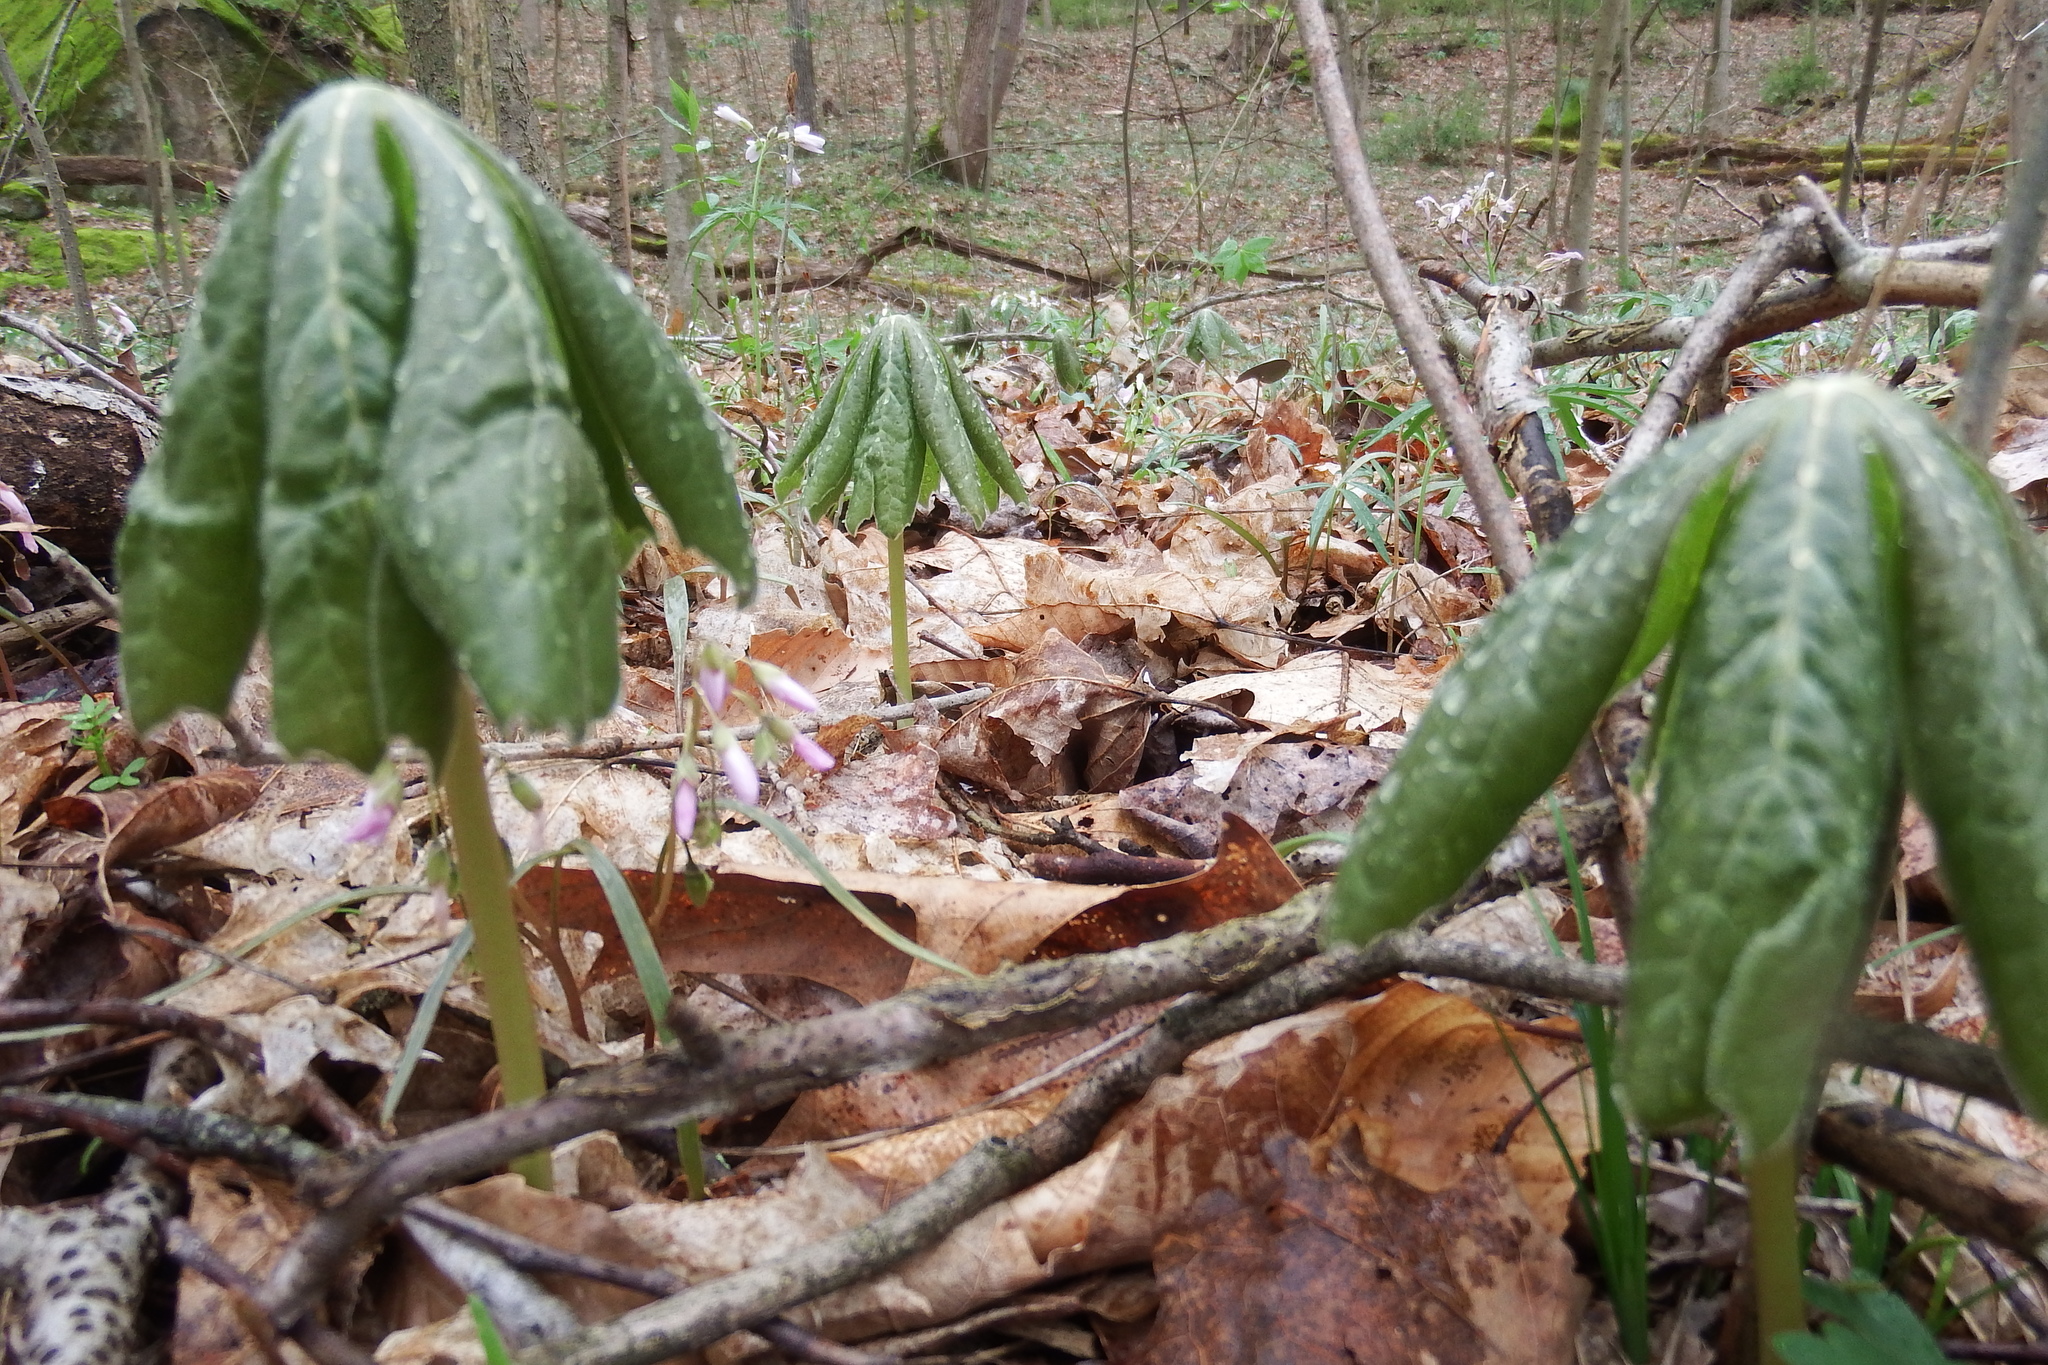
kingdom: Plantae
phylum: Tracheophyta
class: Magnoliopsida
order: Ranunculales
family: Berberidaceae
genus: Podophyllum
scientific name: Podophyllum peltatum
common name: Wild mandrake
